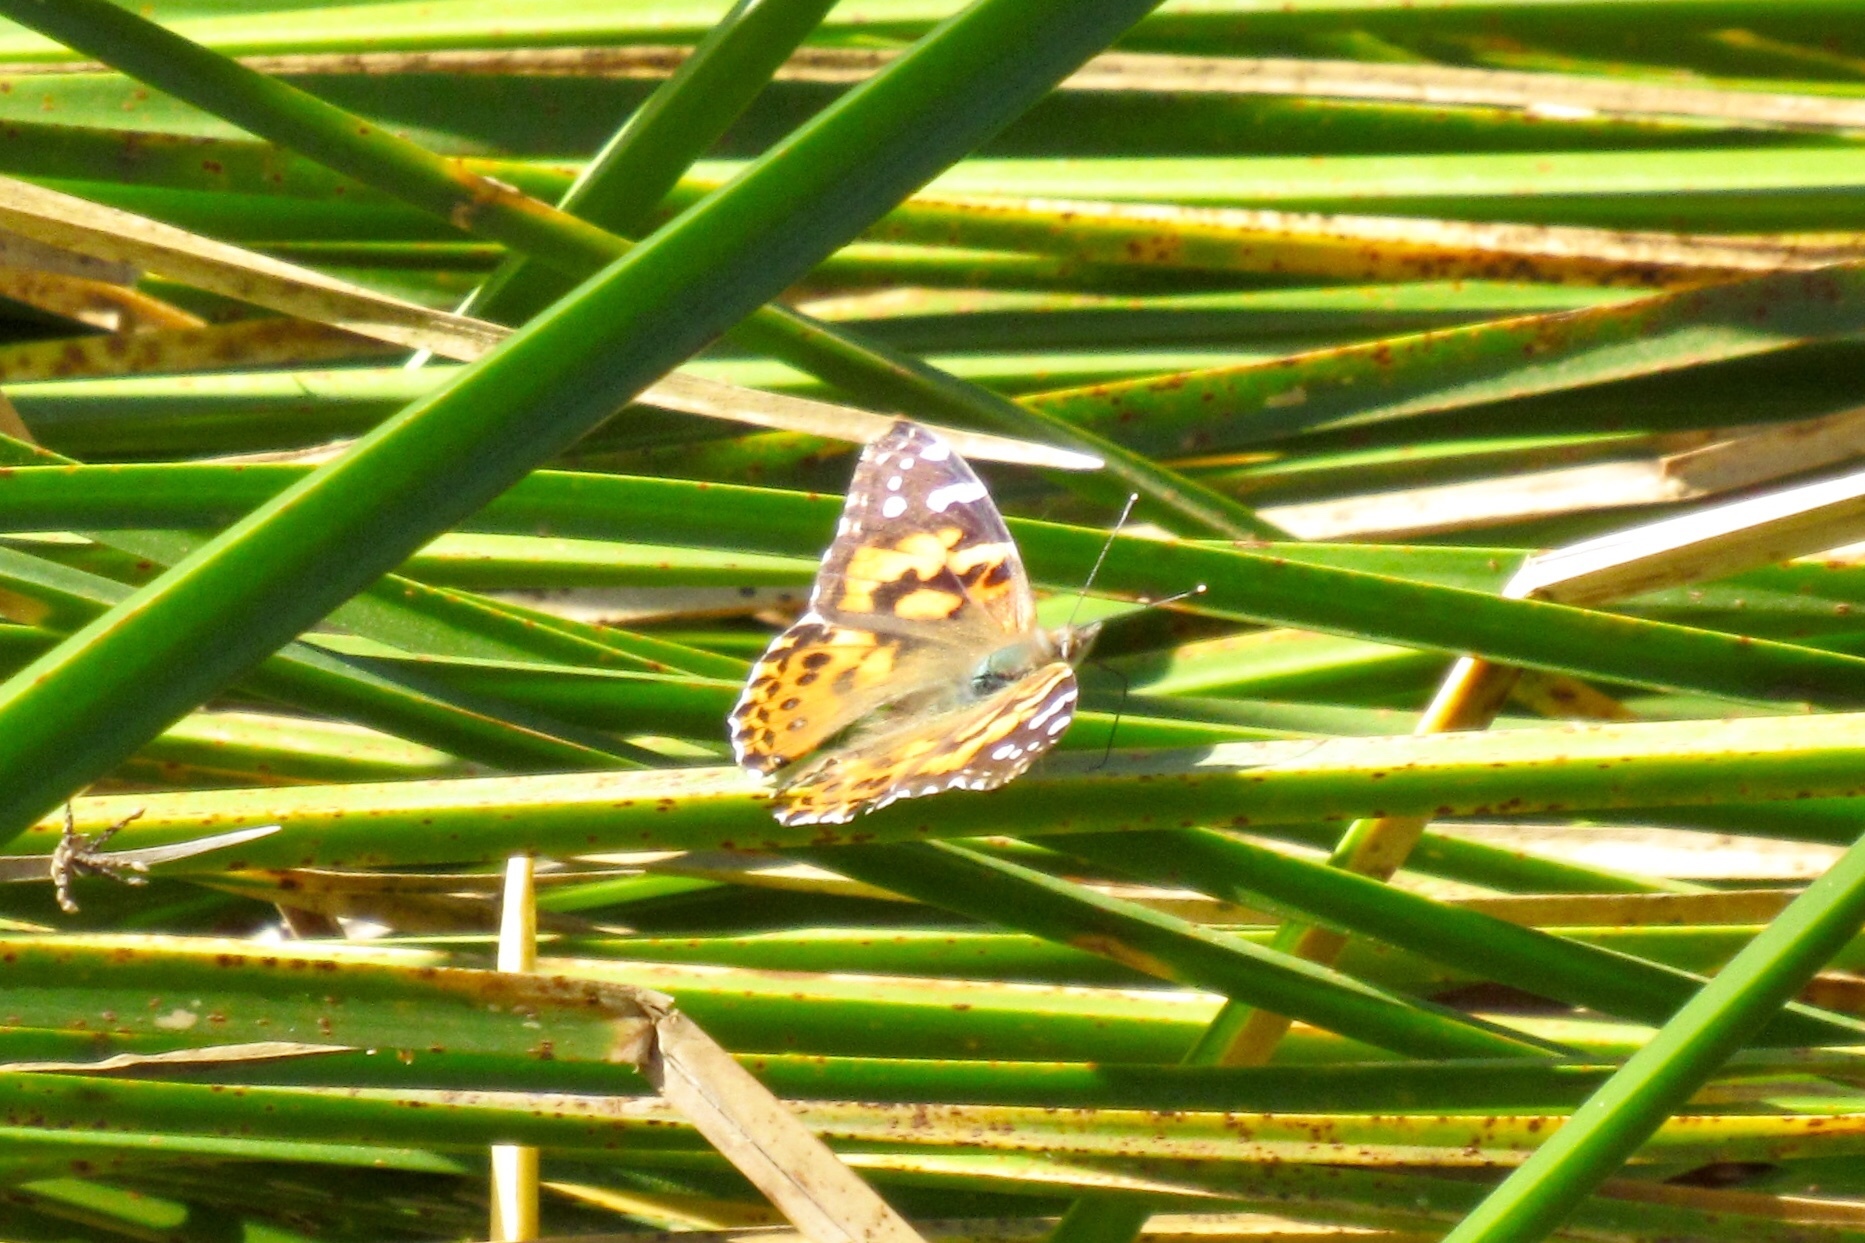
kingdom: Animalia
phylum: Arthropoda
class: Insecta
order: Lepidoptera
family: Nymphalidae
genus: Vanessa
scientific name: Vanessa cardui
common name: Painted lady
